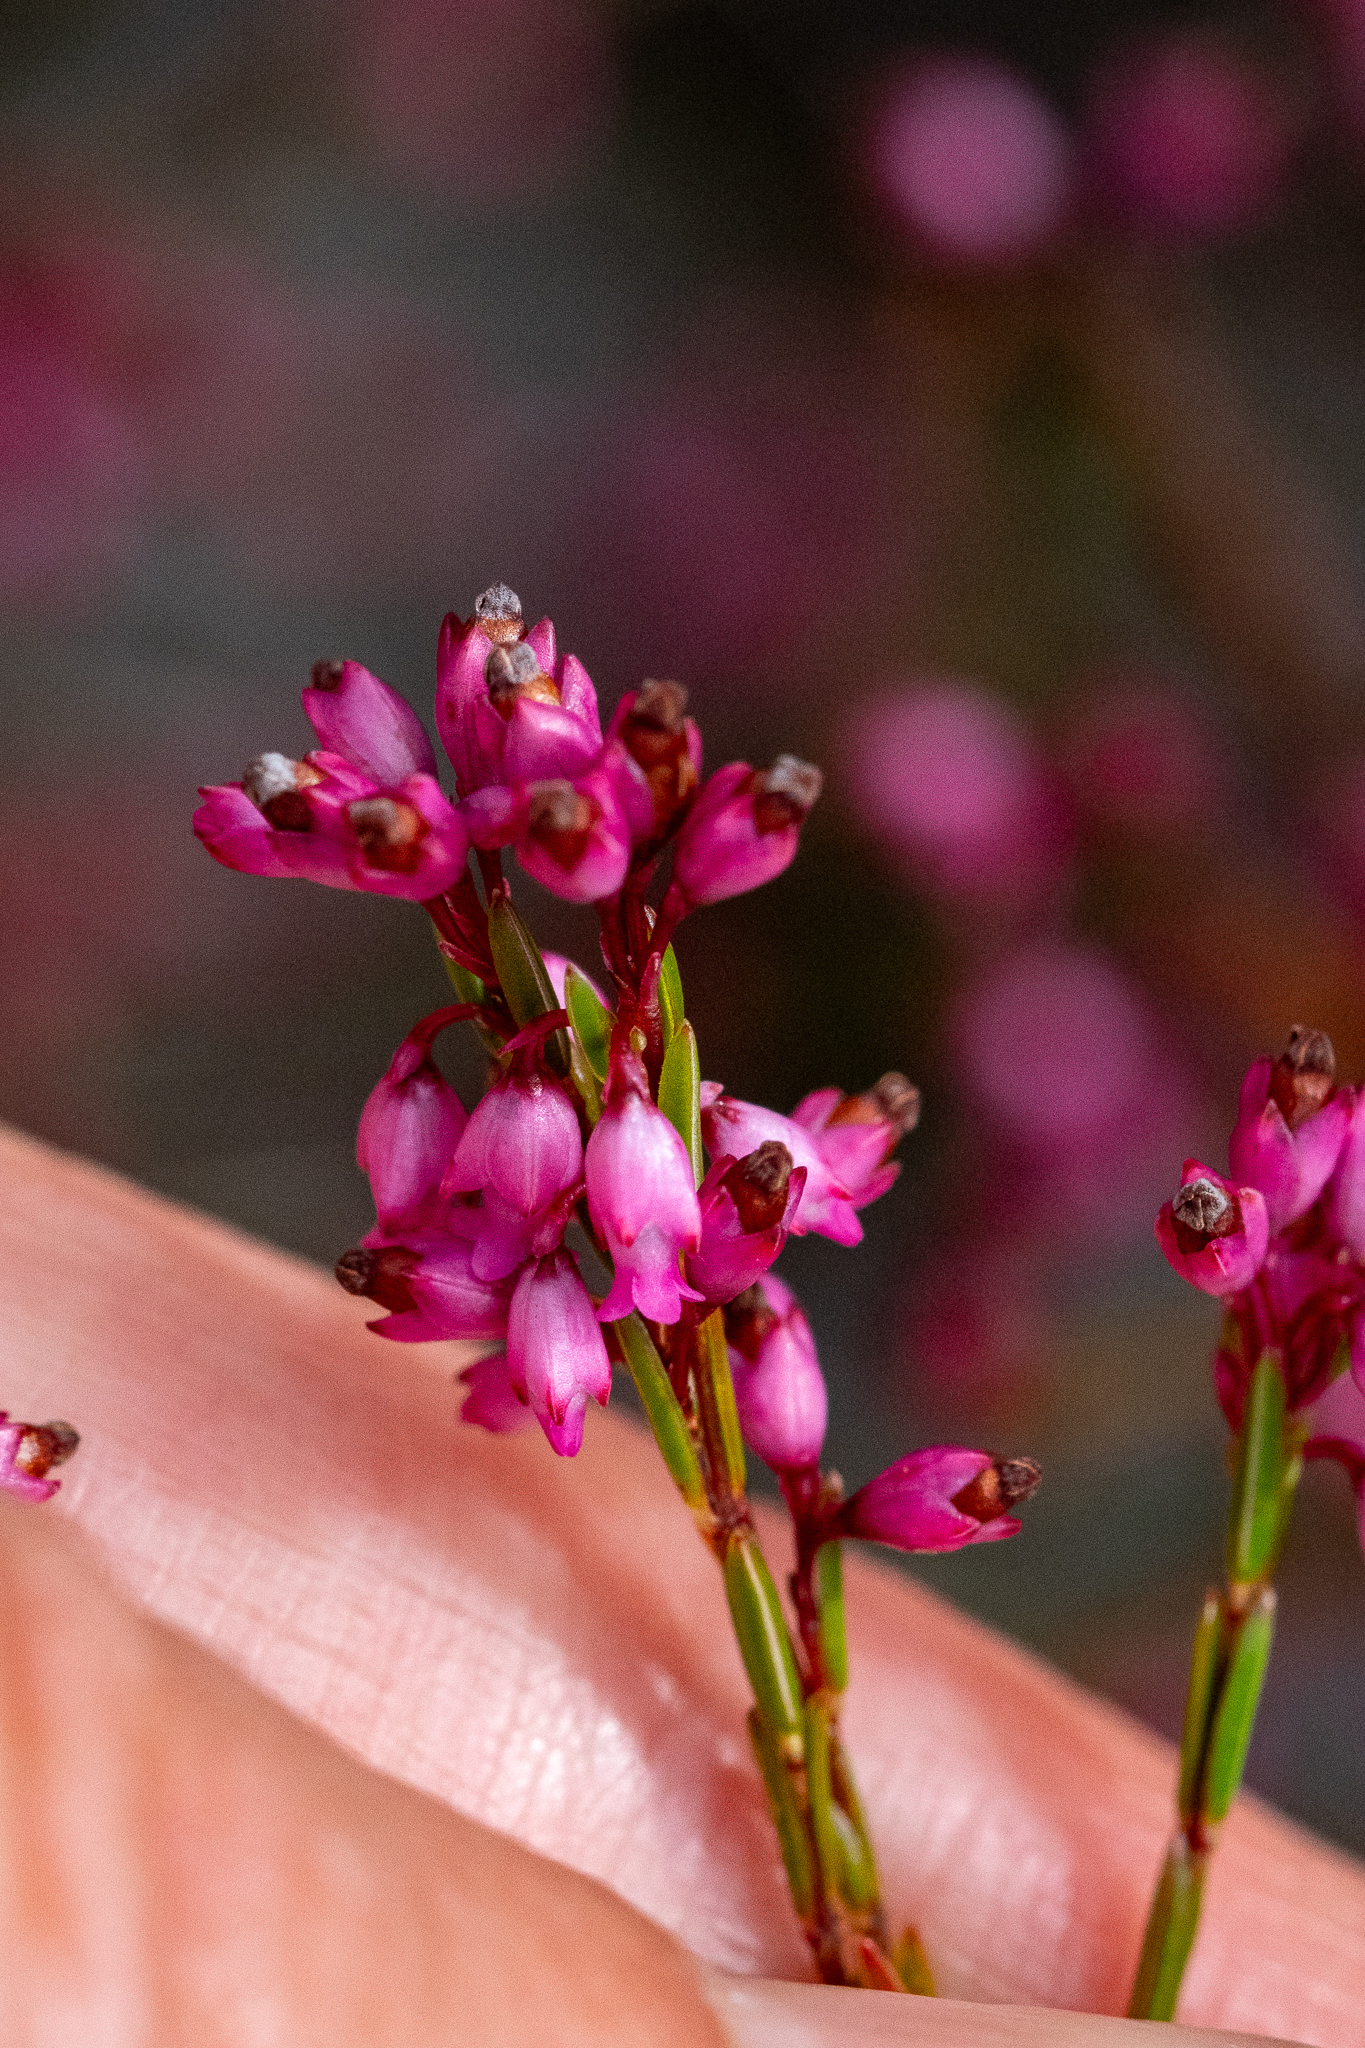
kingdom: Plantae
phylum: Tracheophyta
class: Magnoliopsida
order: Ericales
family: Ericaceae
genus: Erica
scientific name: Erica tenuifolia
